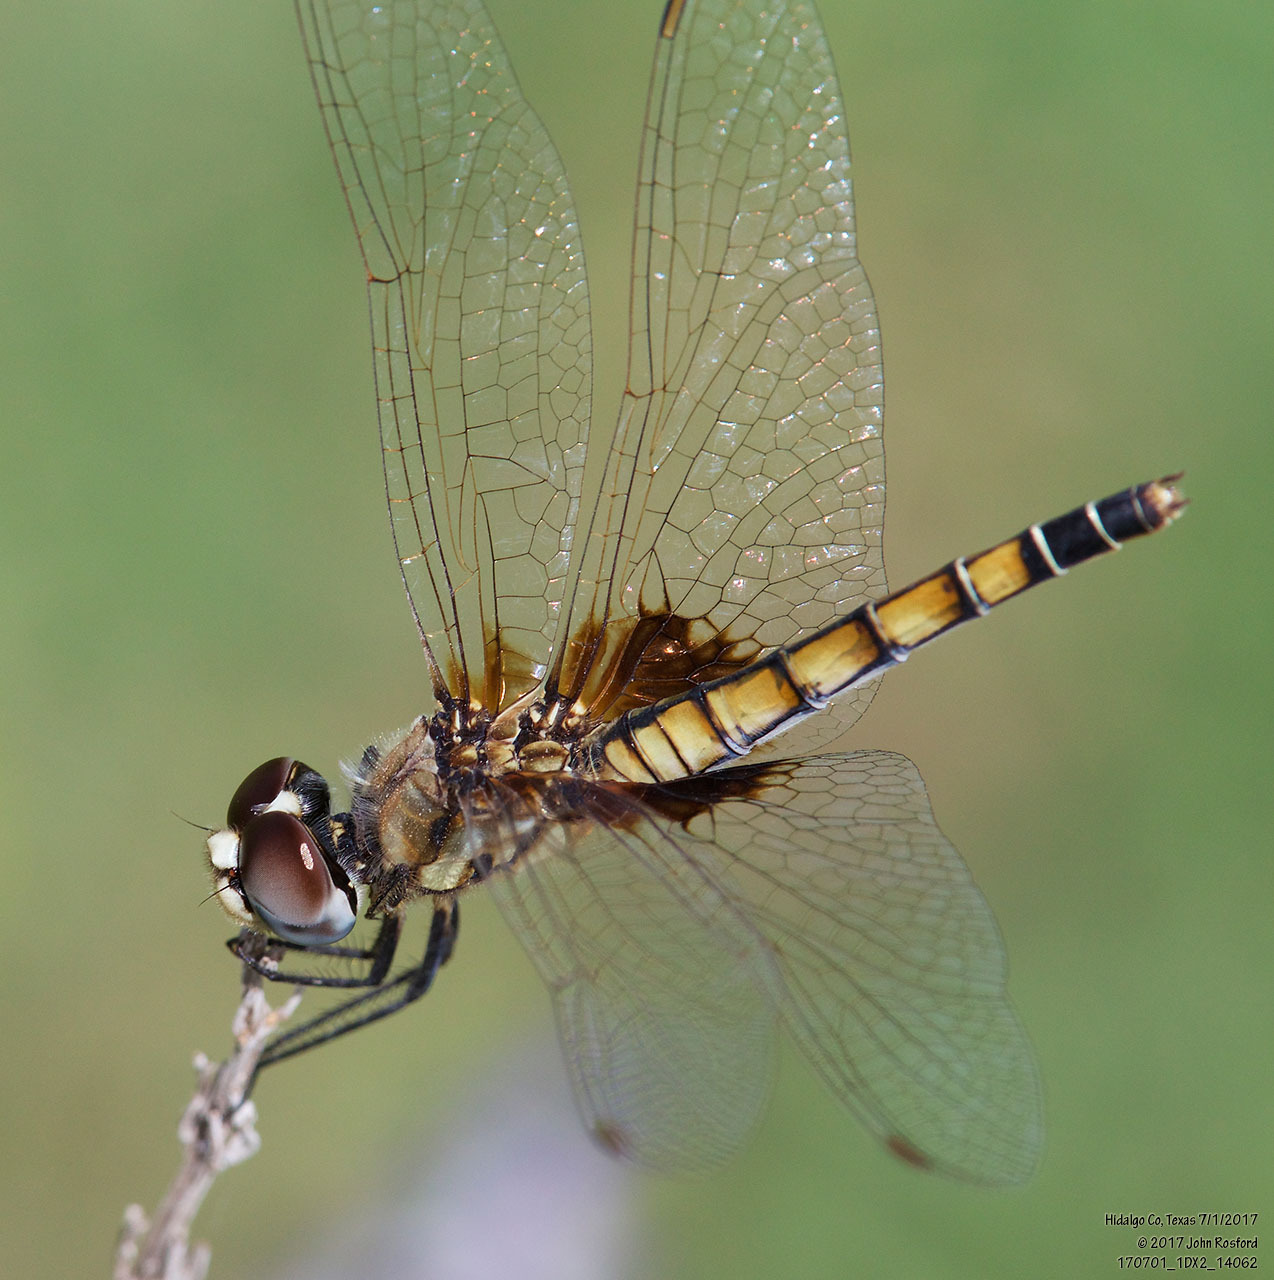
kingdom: Animalia
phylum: Arthropoda
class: Insecta
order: Odonata
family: Libellulidae
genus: Macrodiplax
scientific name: Macrodiplax balteata
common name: Marl pennant
